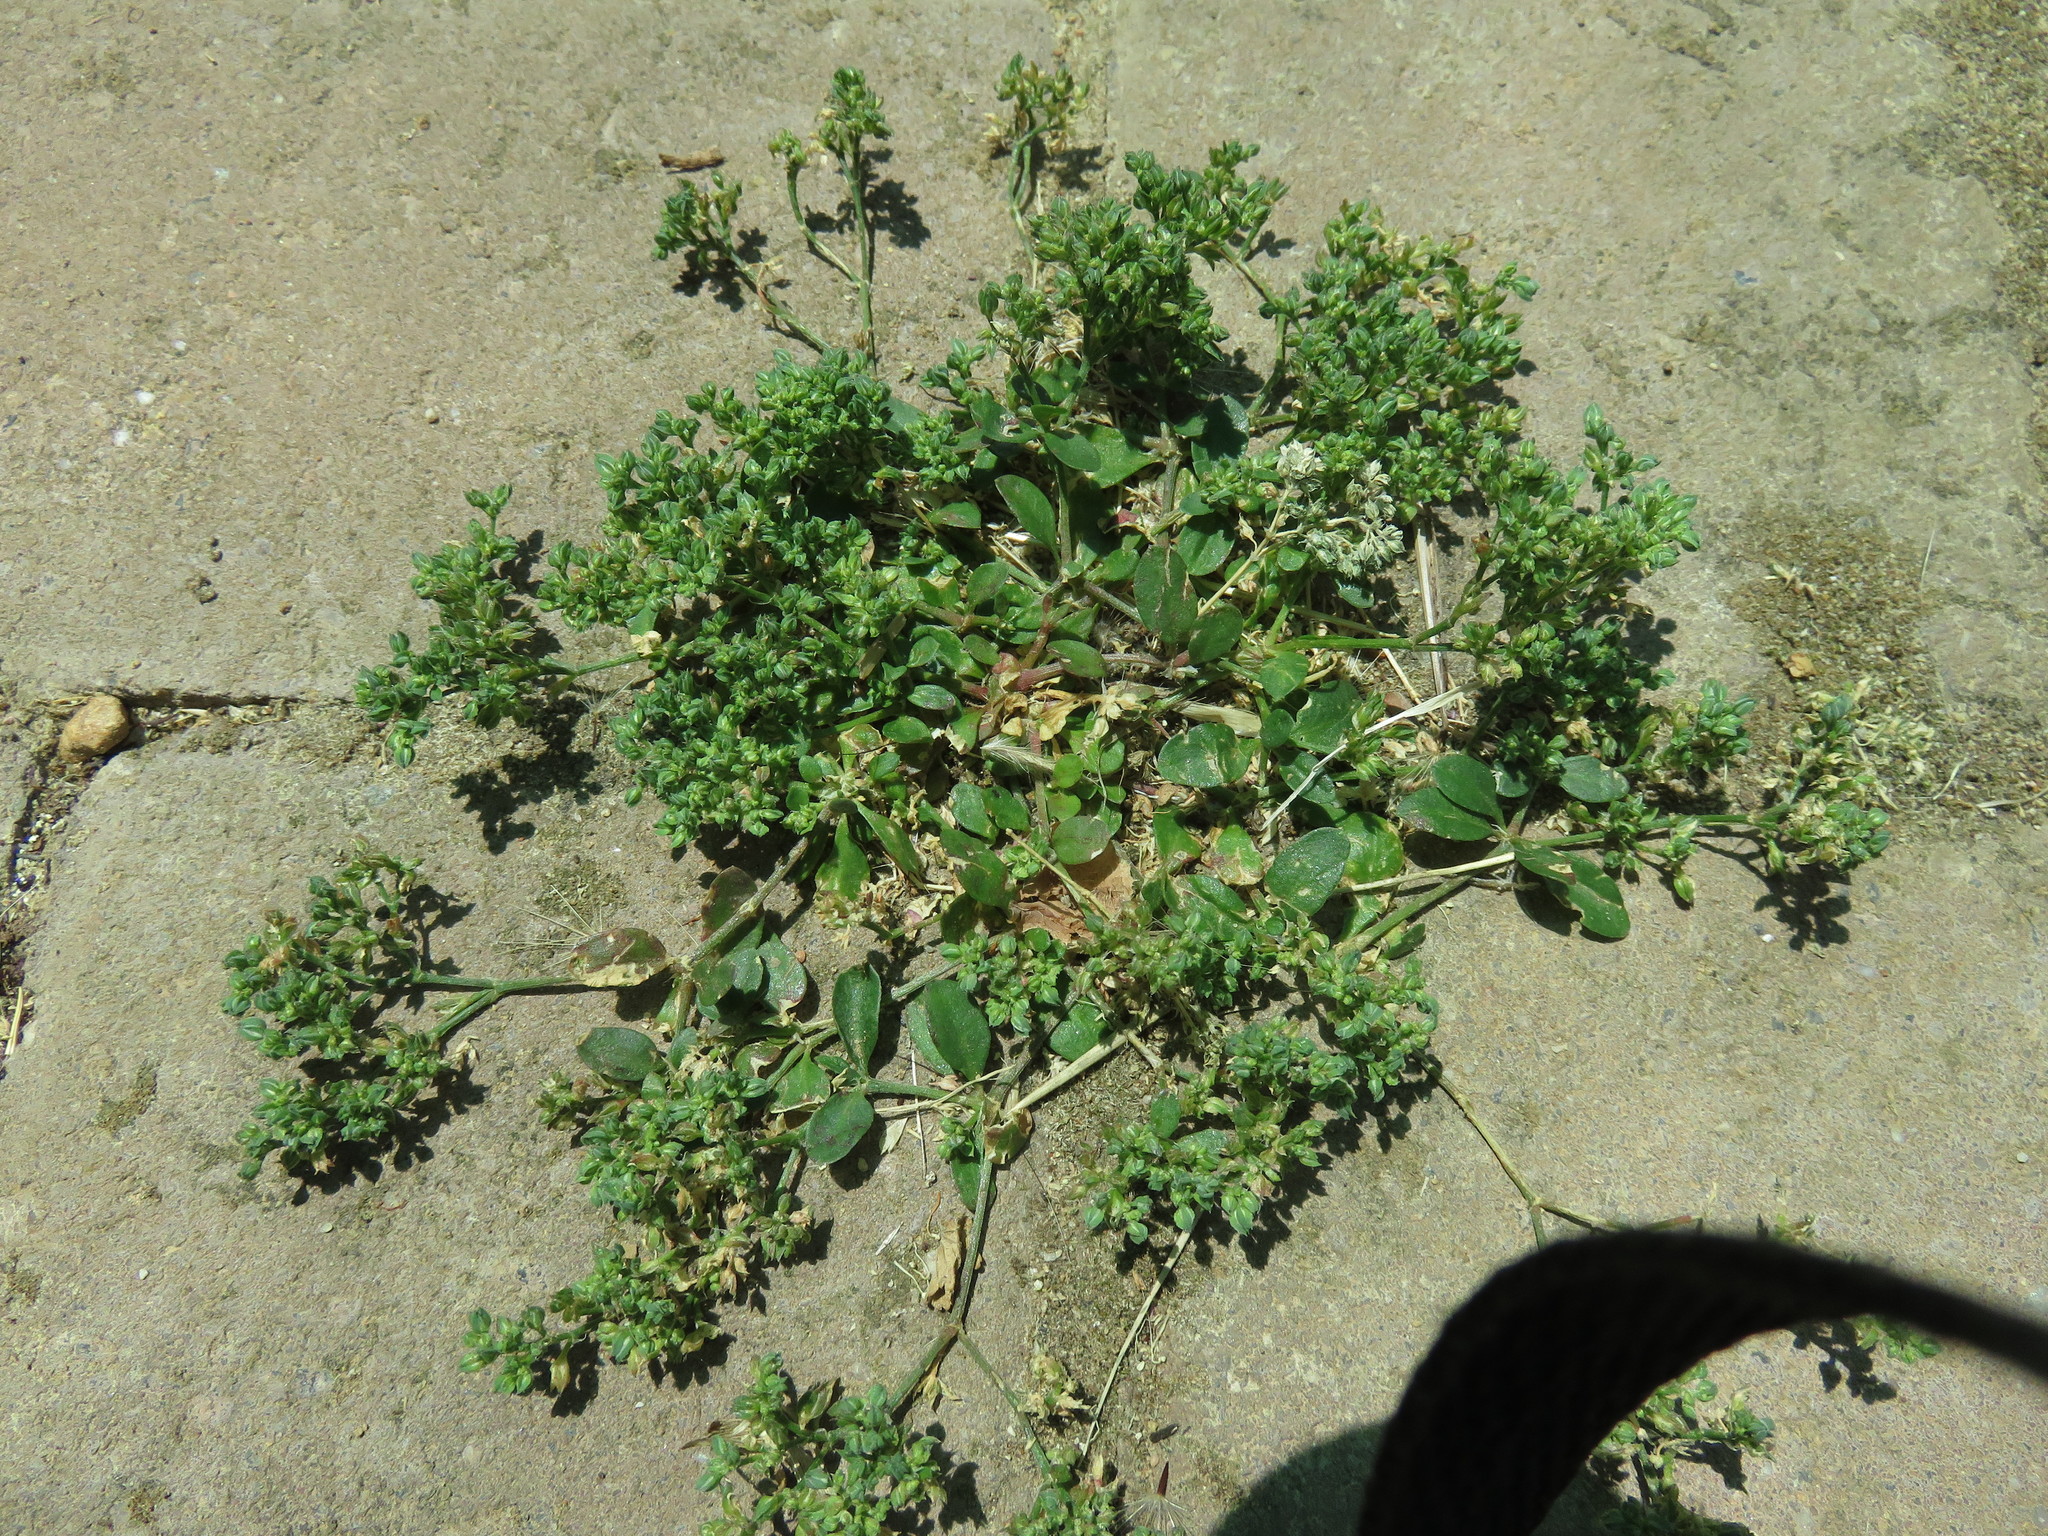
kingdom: Plantae
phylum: Tracheophyta
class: Magnoliopsida
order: Caryophyllales
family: Caryophyllaceae
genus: Polycarpon
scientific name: Polycarpon tetraphyllum
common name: Four-leaved all-seed
